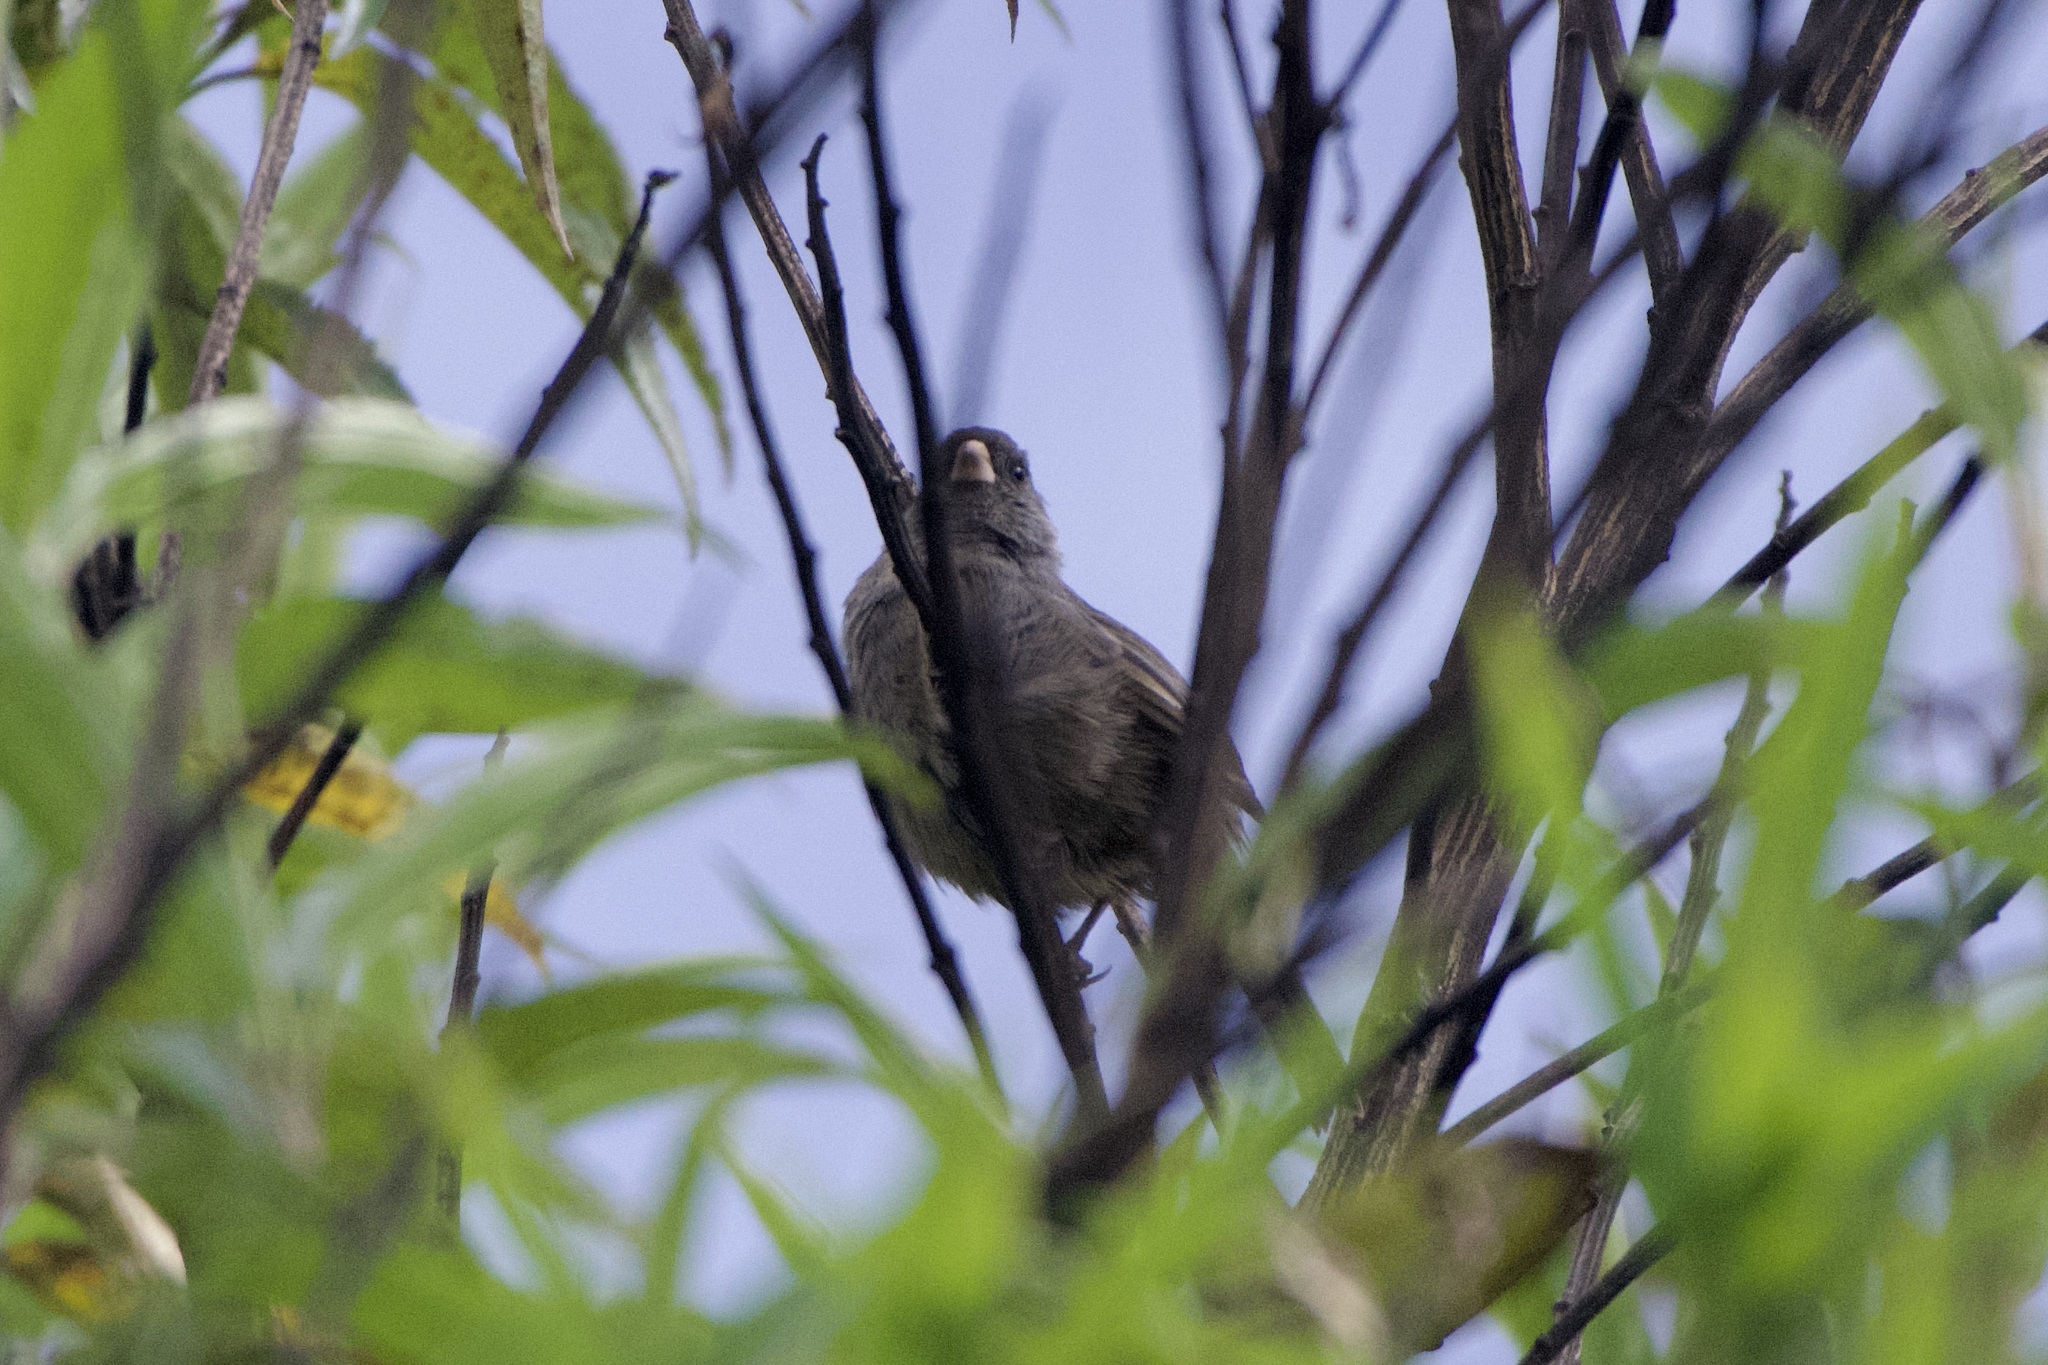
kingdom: Animalia
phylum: Chordata
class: Aves
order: Passeriformes
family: Thraupidae
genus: Catamenia
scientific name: Catamenia homochroa
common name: Paramo seedeater
